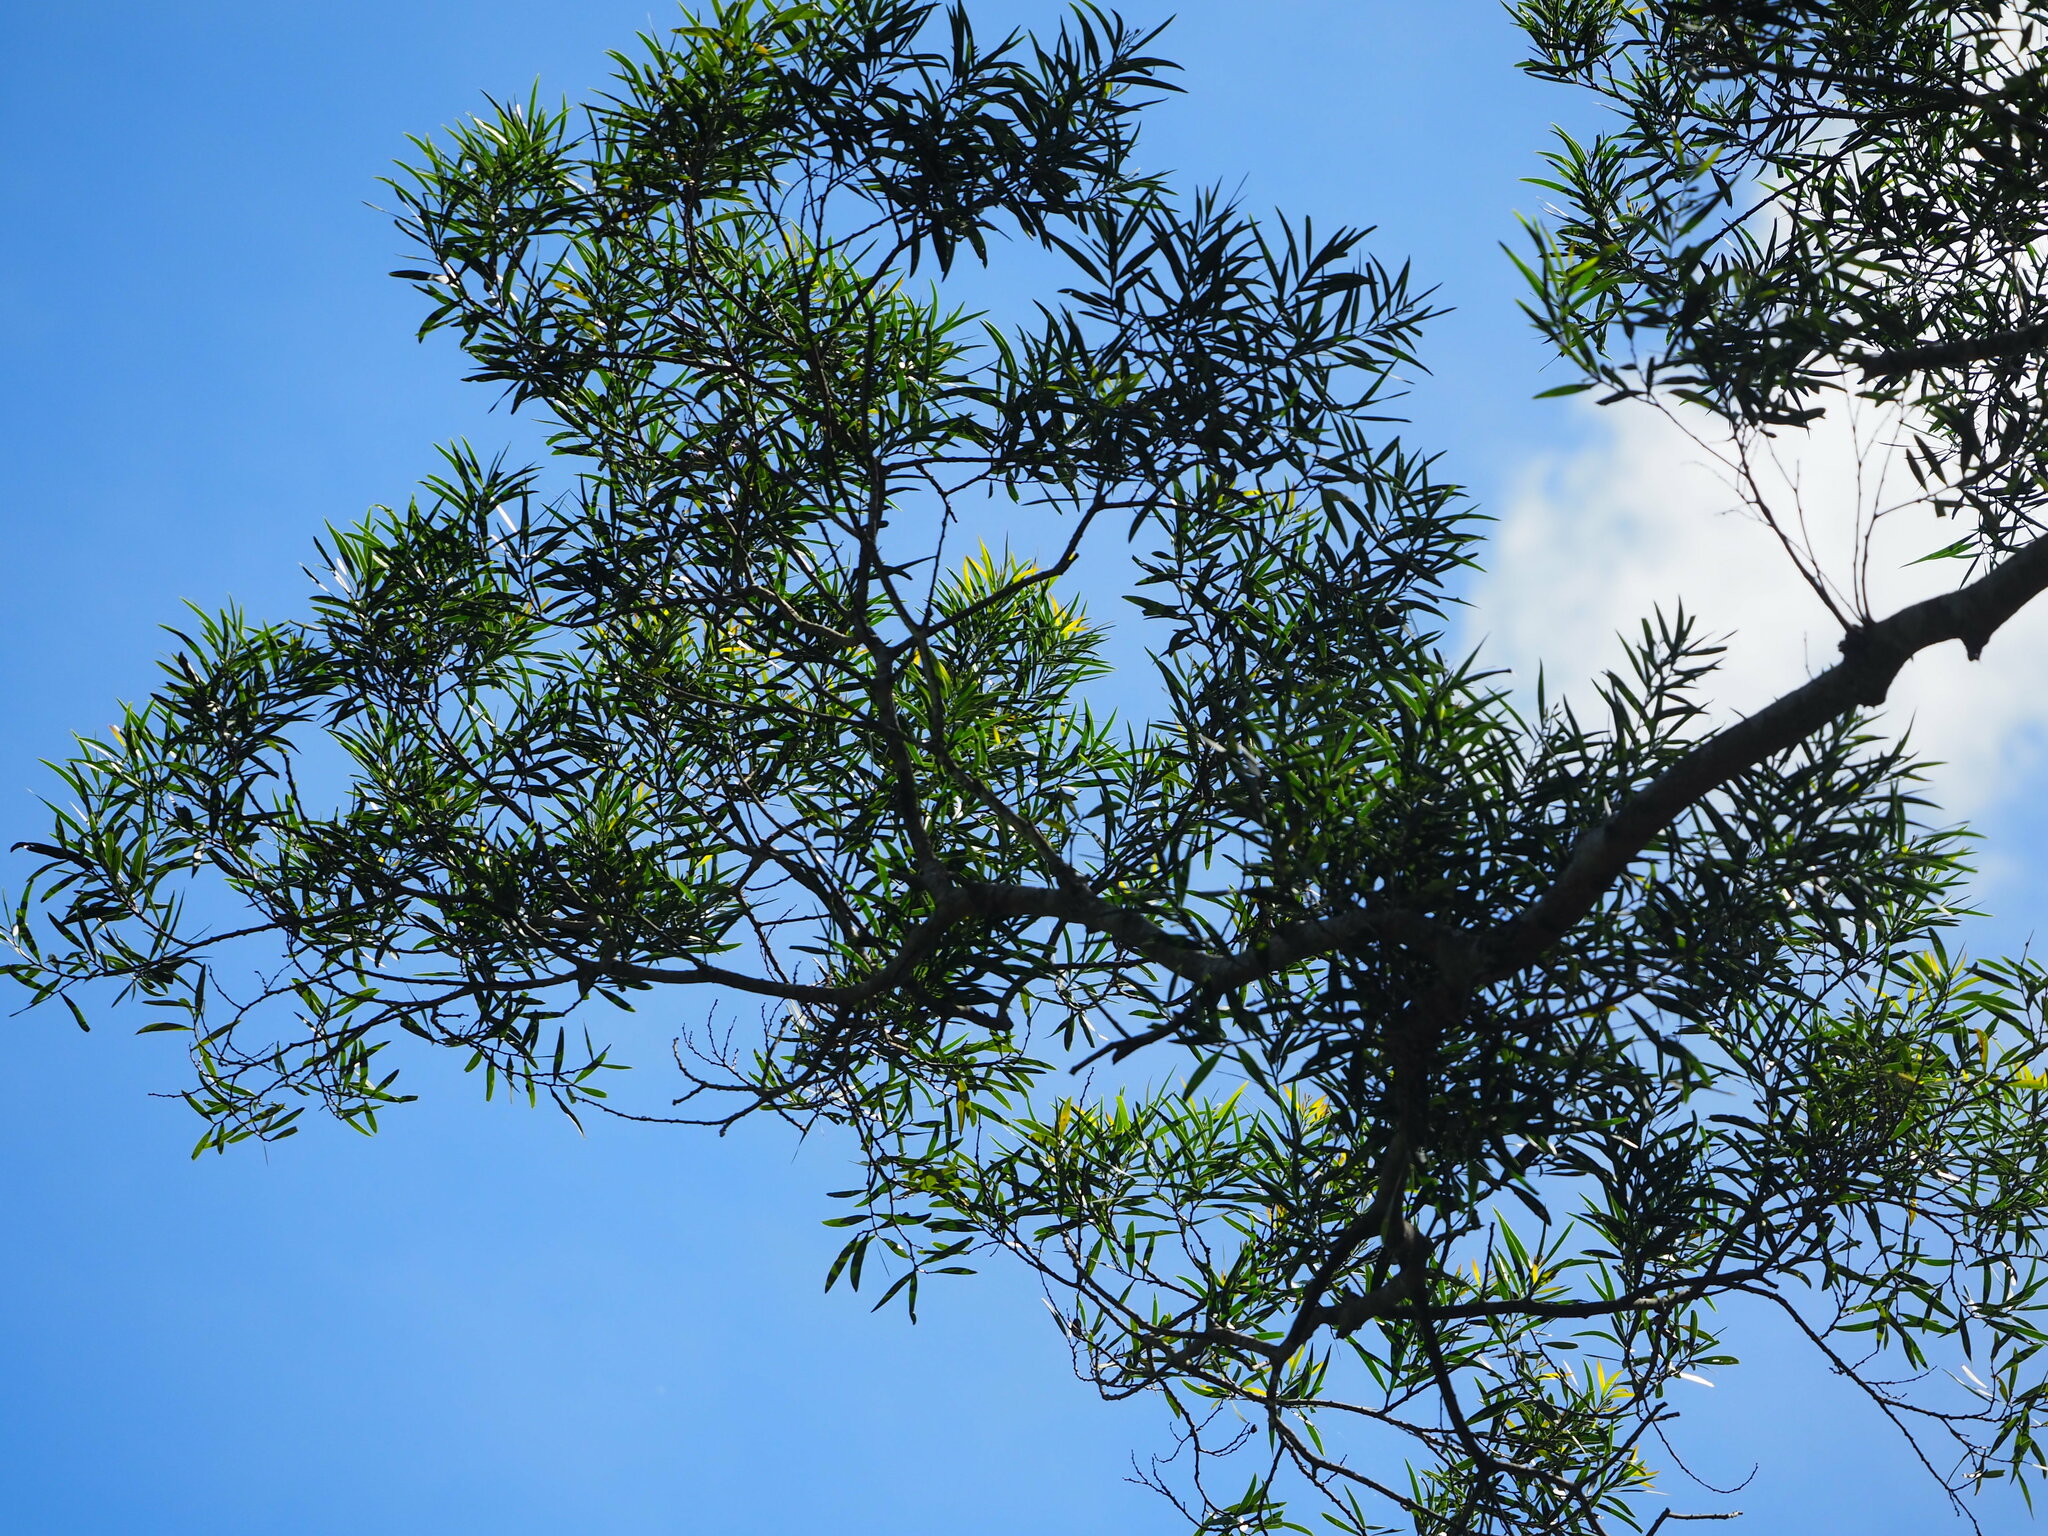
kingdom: Plantae
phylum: Tracheophyta
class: Magnoliopsida
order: Fabales
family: Fabaceae
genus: Acacia
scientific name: Acacia confusa
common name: Formosan koa
